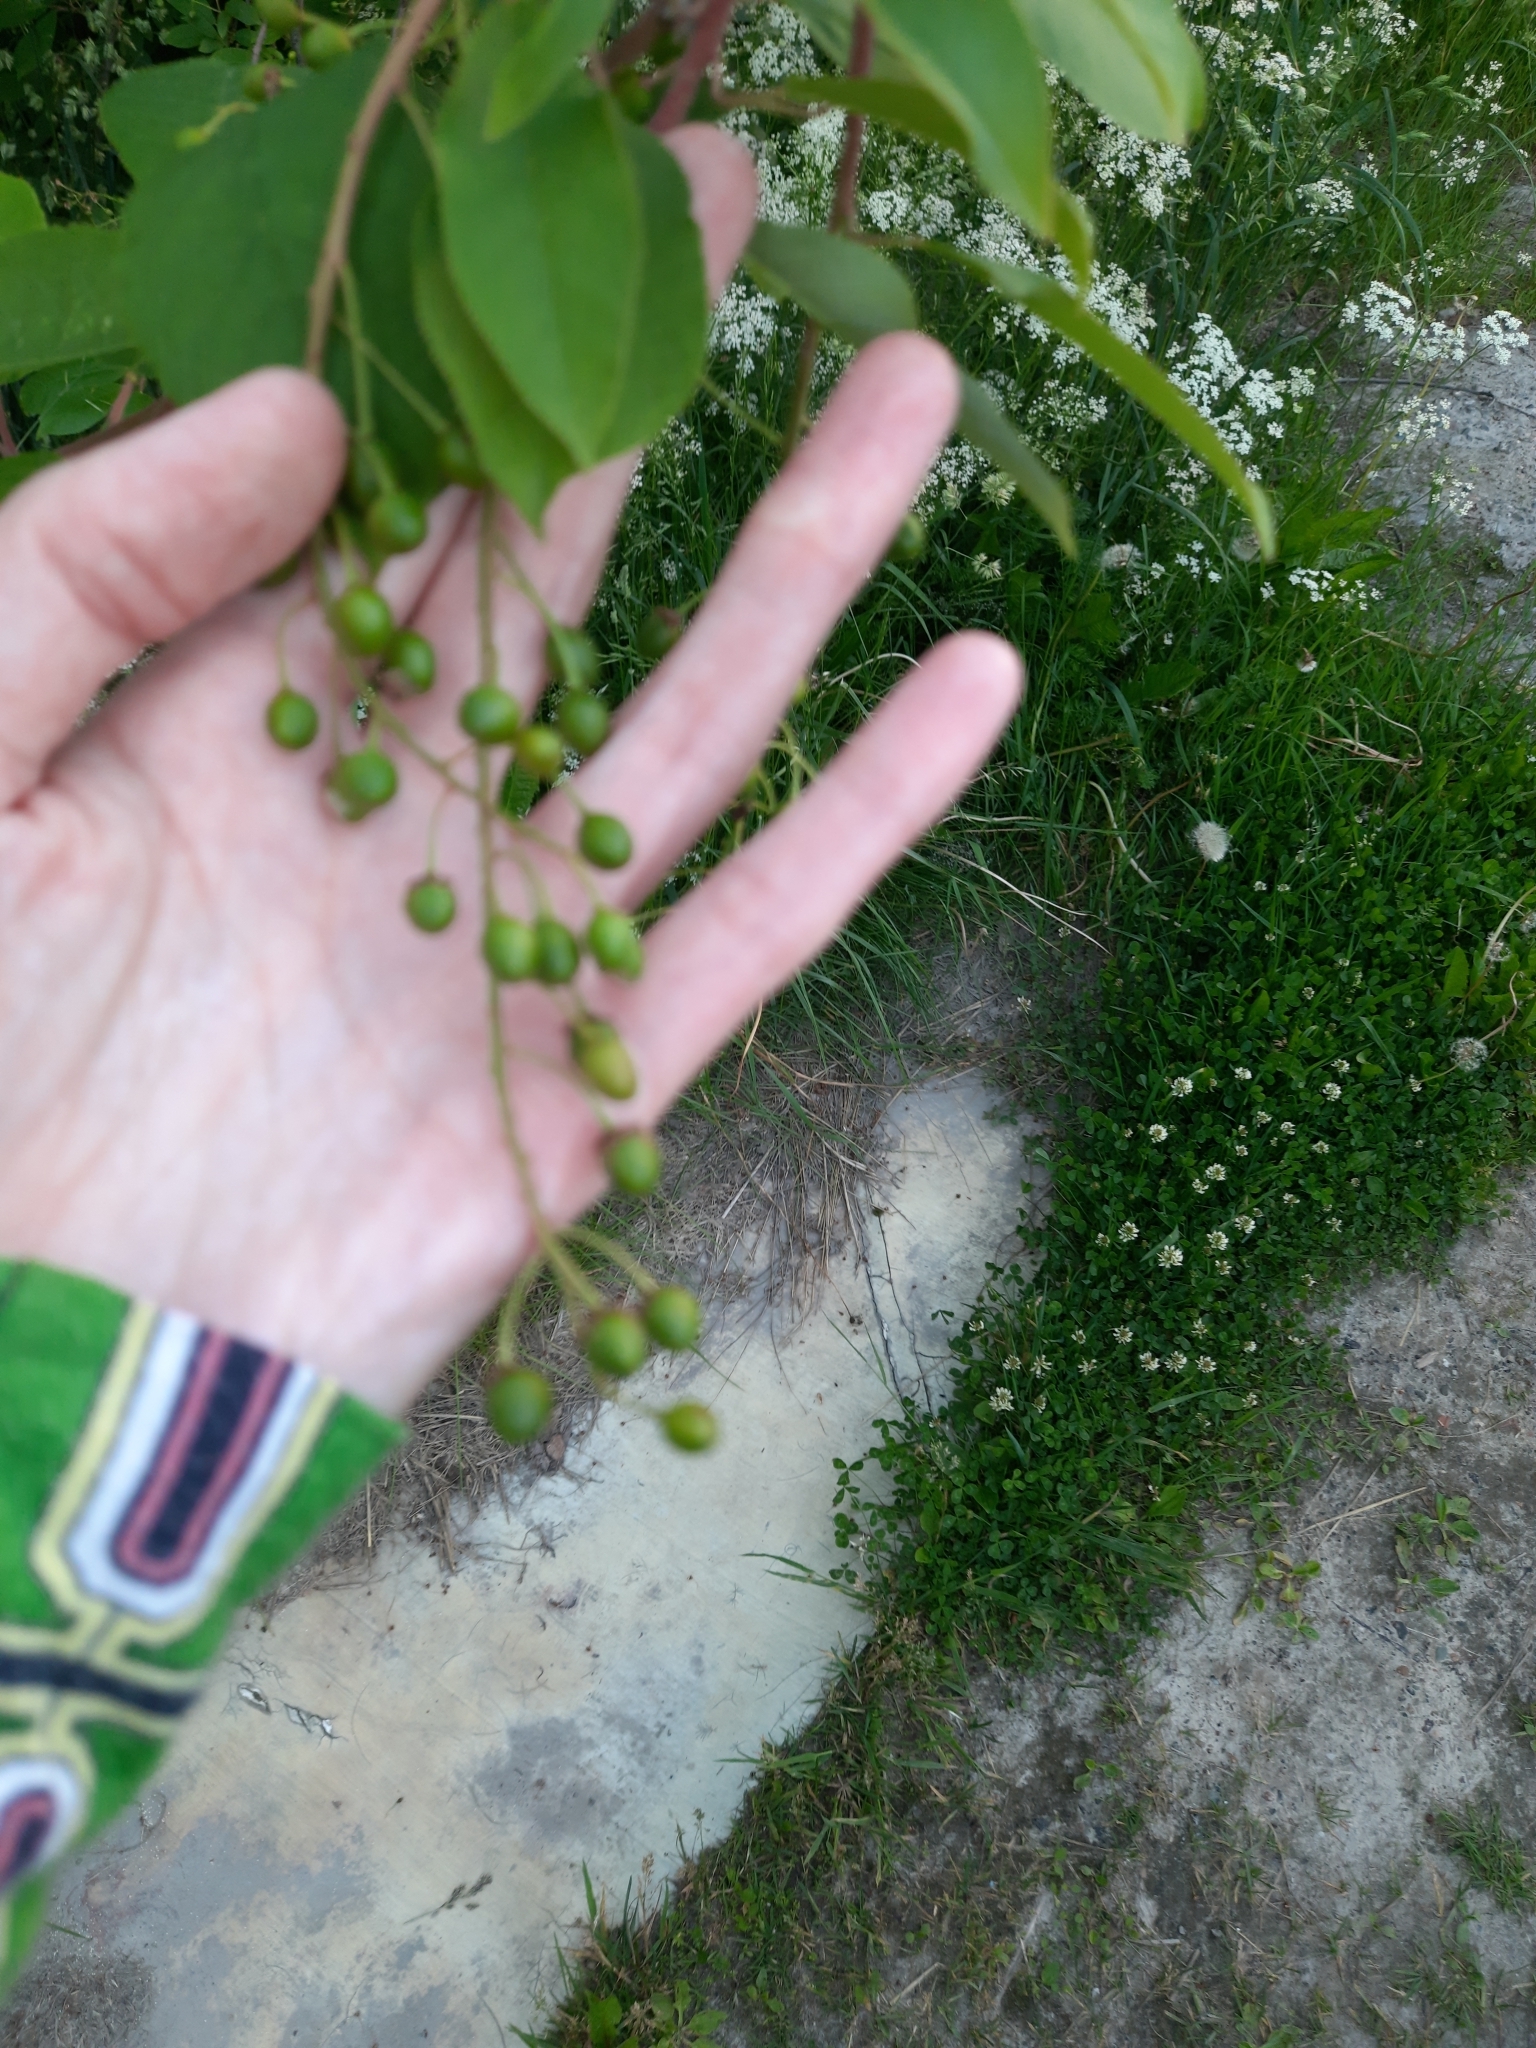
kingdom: Plantae
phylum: Tracheophyta
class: Magnoliopsida
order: Rosales
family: Rosaceae
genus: Prunus
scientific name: Prunus padus
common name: Bird cherry
